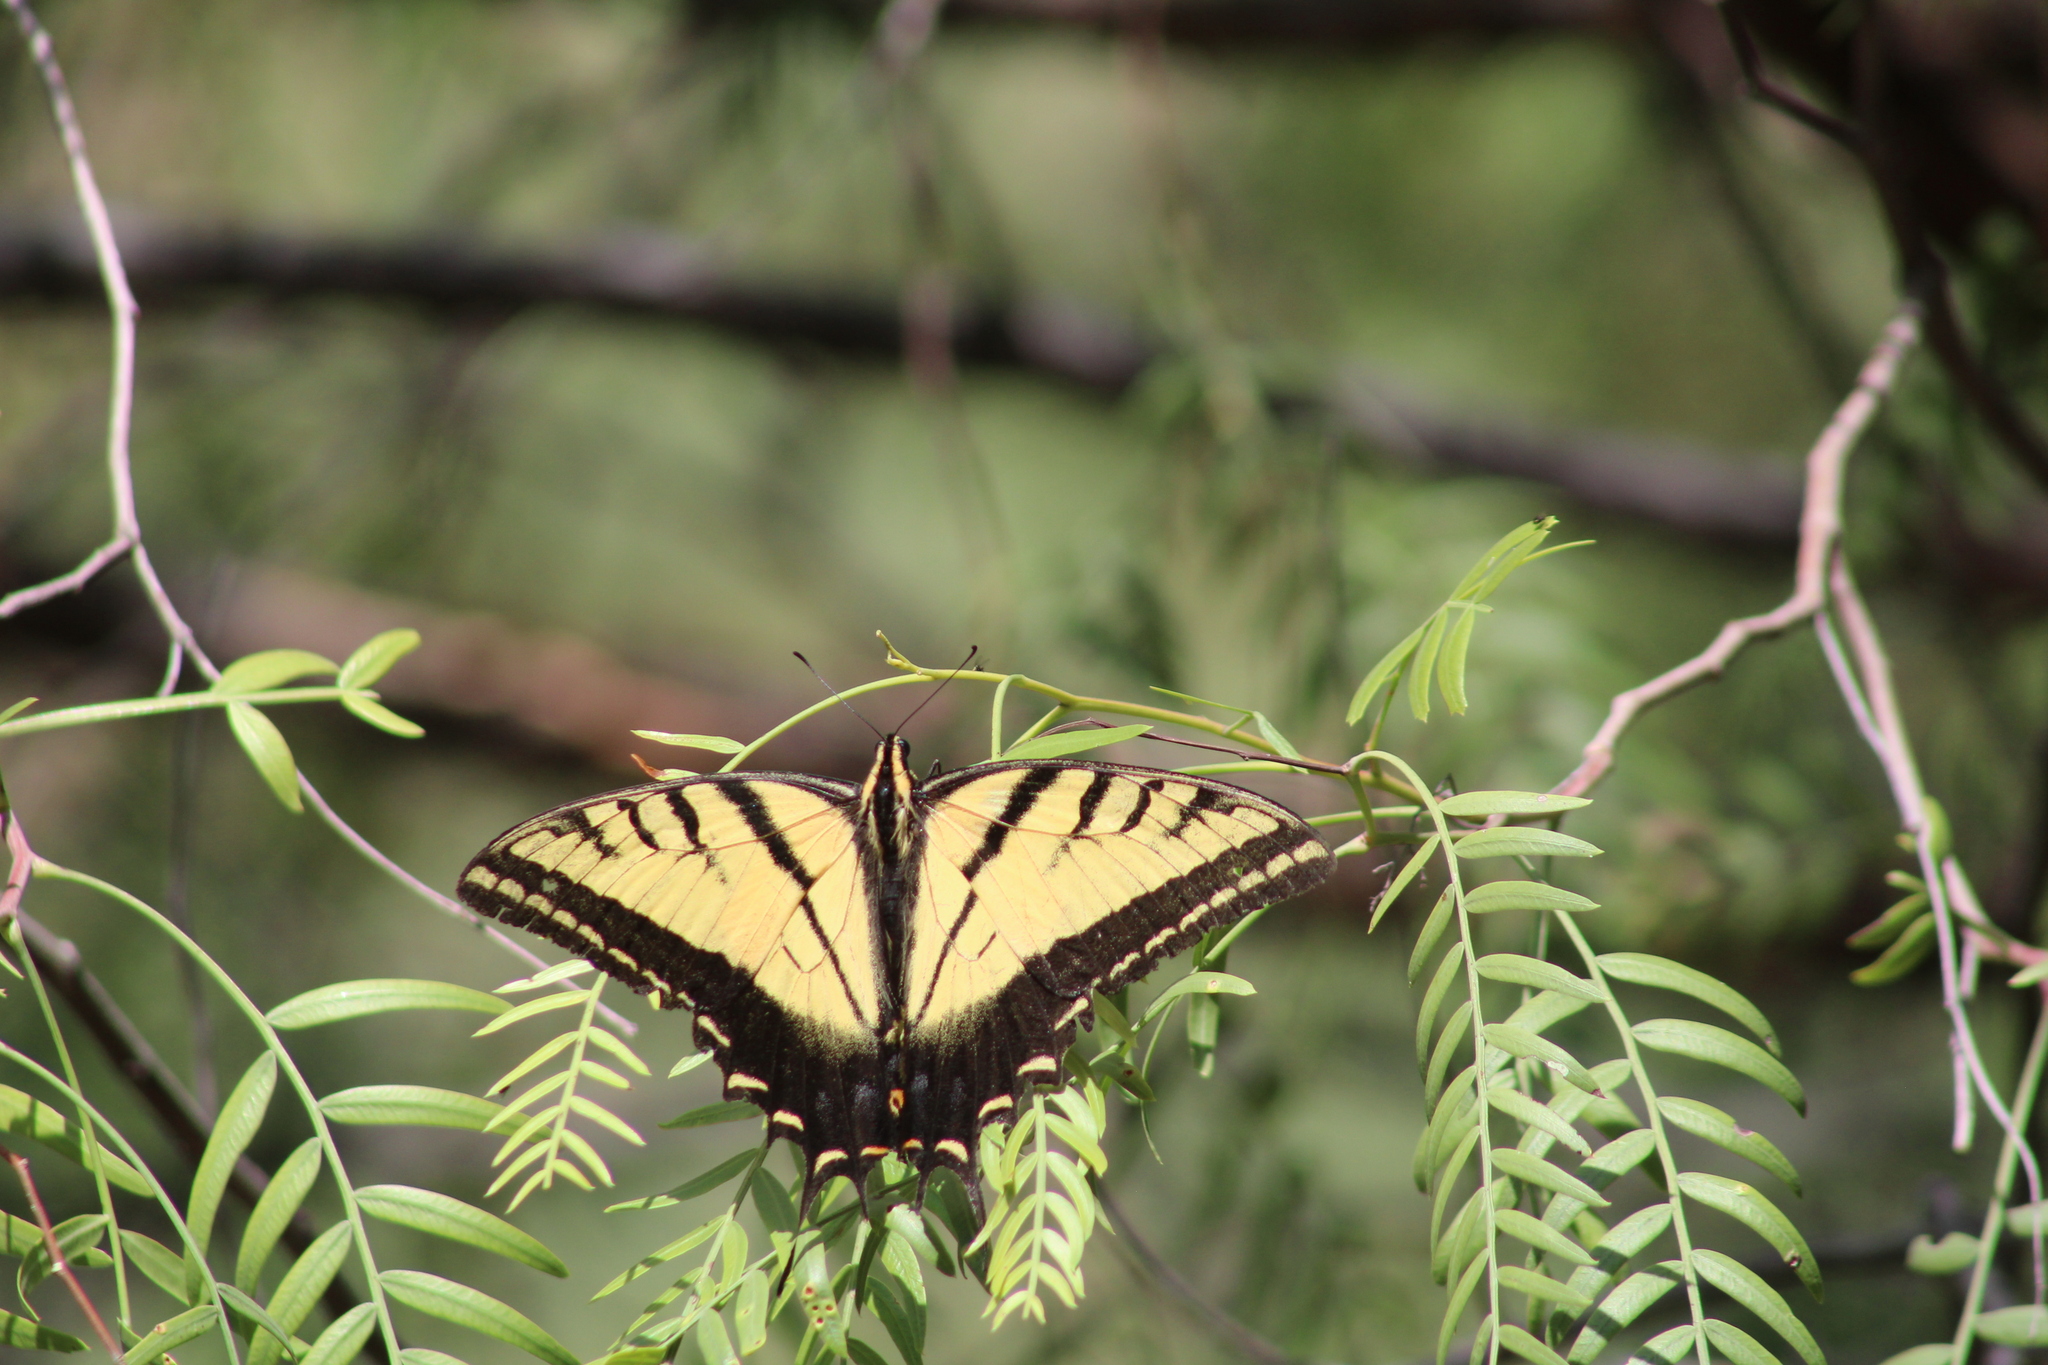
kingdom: Animalia
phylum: Arthropoda
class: Insecta
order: Lepidoptera
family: Papilionidae
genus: Papilio
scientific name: Papilio multicaudata
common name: Two-tailed tiger swallowtail
